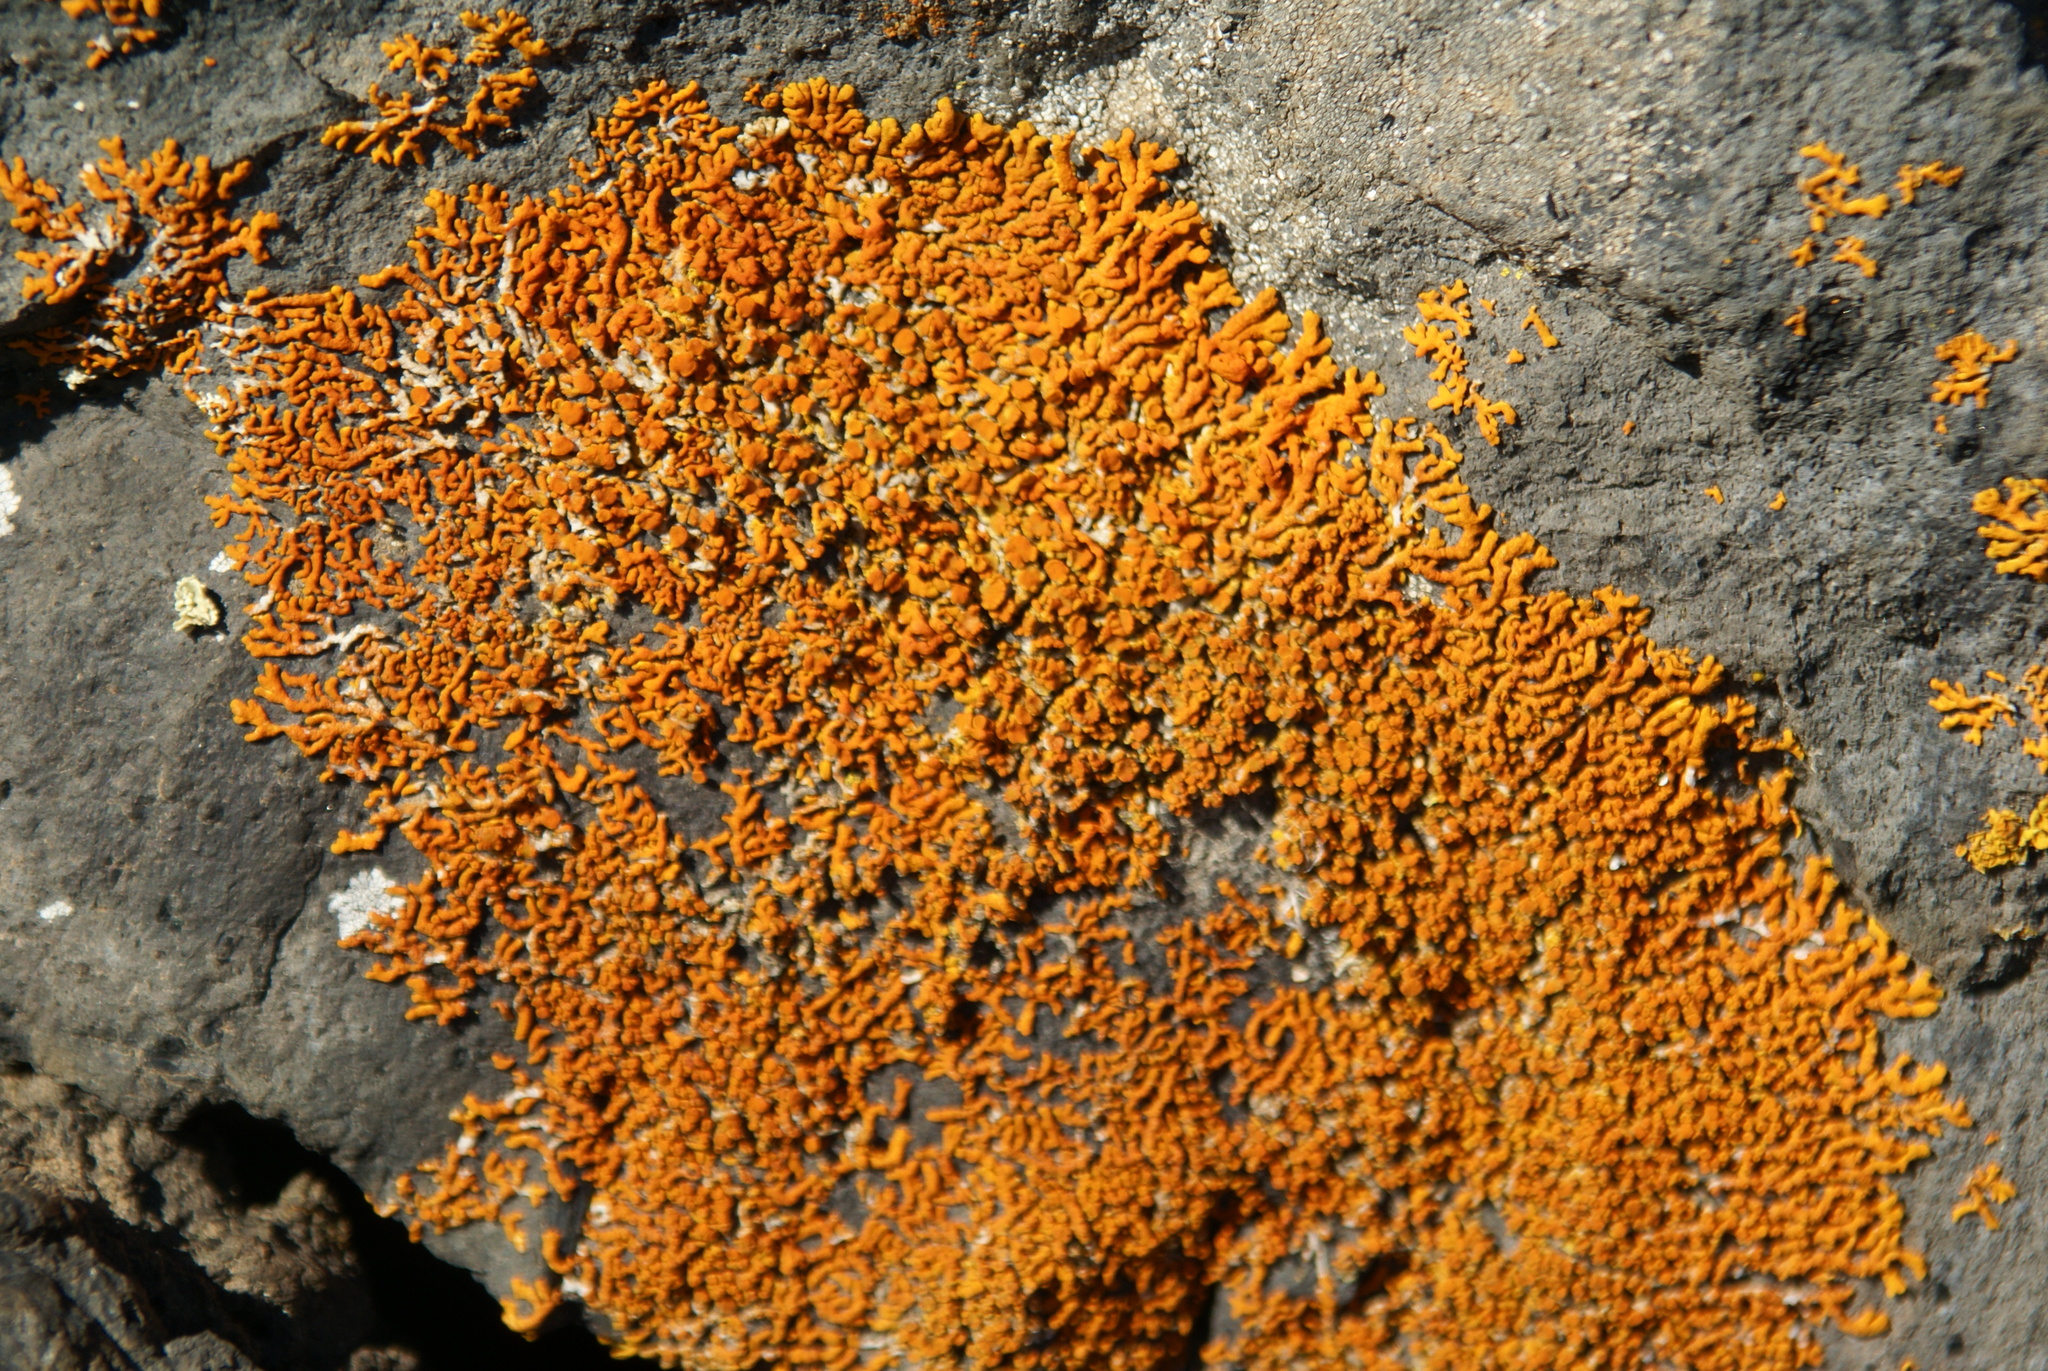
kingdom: Fungi
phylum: Ascomycota
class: Lecanoromycetes
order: Teloschistales
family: Teloschistaceae
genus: Xanthoria
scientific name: Xanthoria elegans
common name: Elegant sunburst lichen
